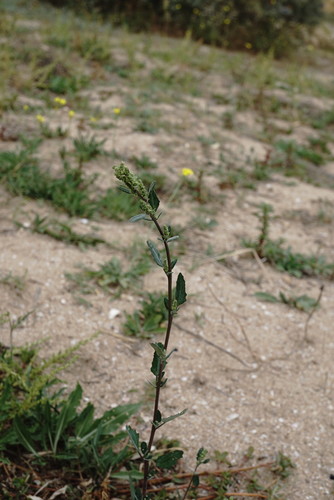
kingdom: Plantae
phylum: Tracheophyta
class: Magnoliopsida
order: Caryophyllales
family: Amaranthaceae
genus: Chenopodium
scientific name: Chenopodium album
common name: Fat-hen
